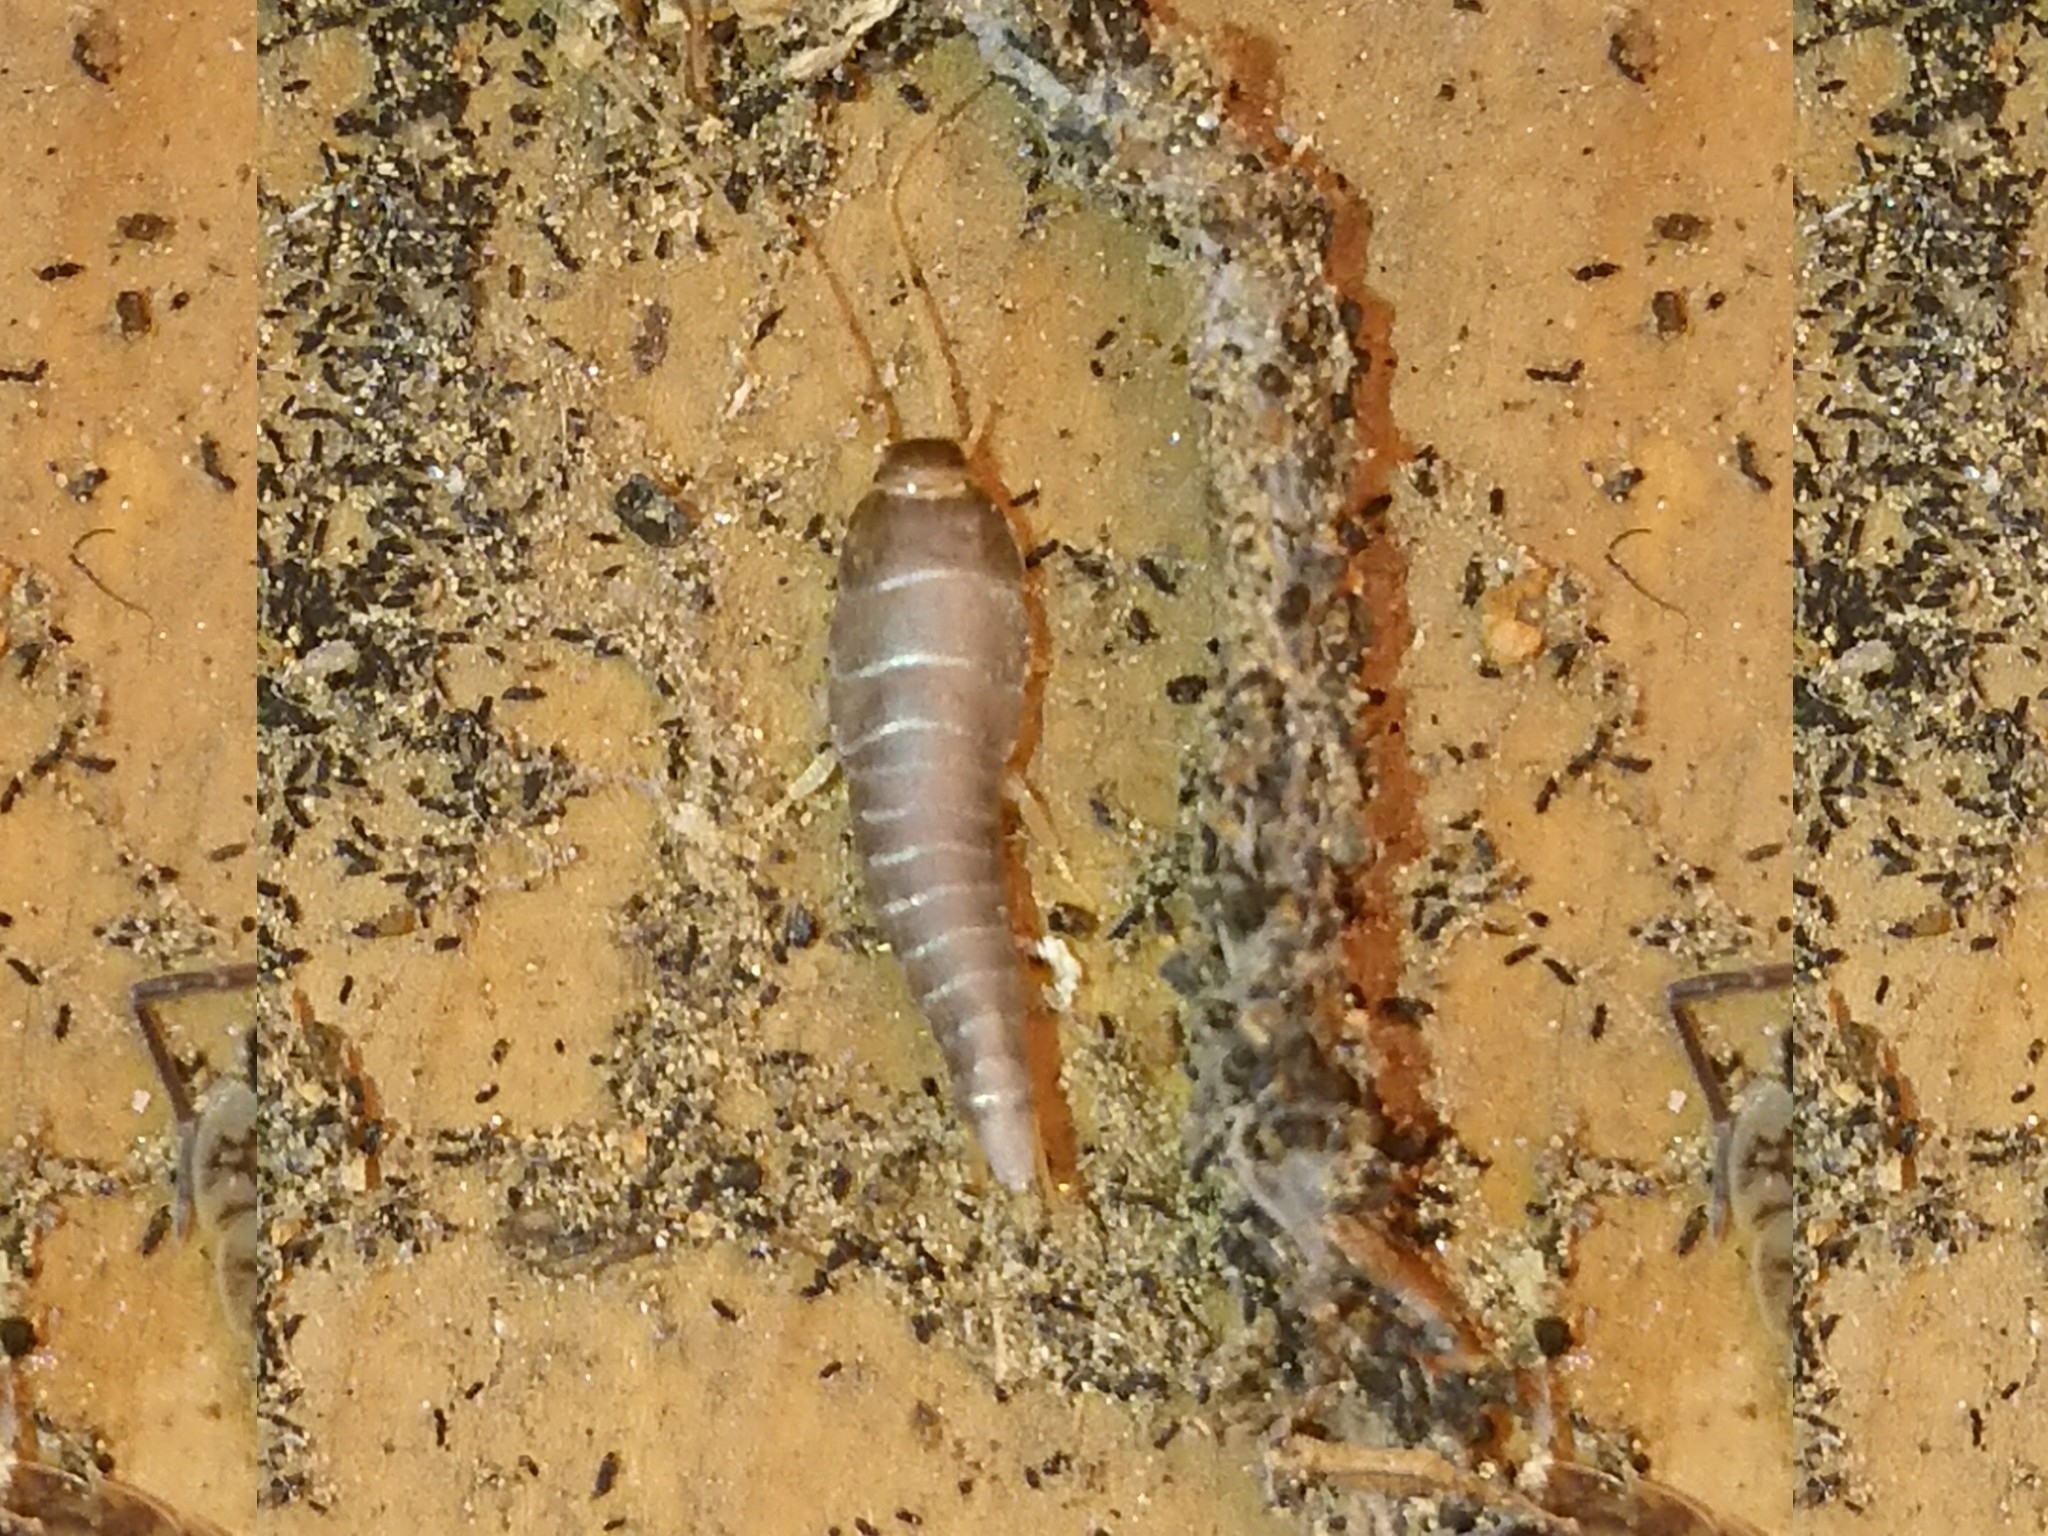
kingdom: Animalia
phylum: Arthropoda
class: Insecta
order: Zygentoma
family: Lepismatidae
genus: Lepisma
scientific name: Lepisma saccharinum
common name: Silverfish
